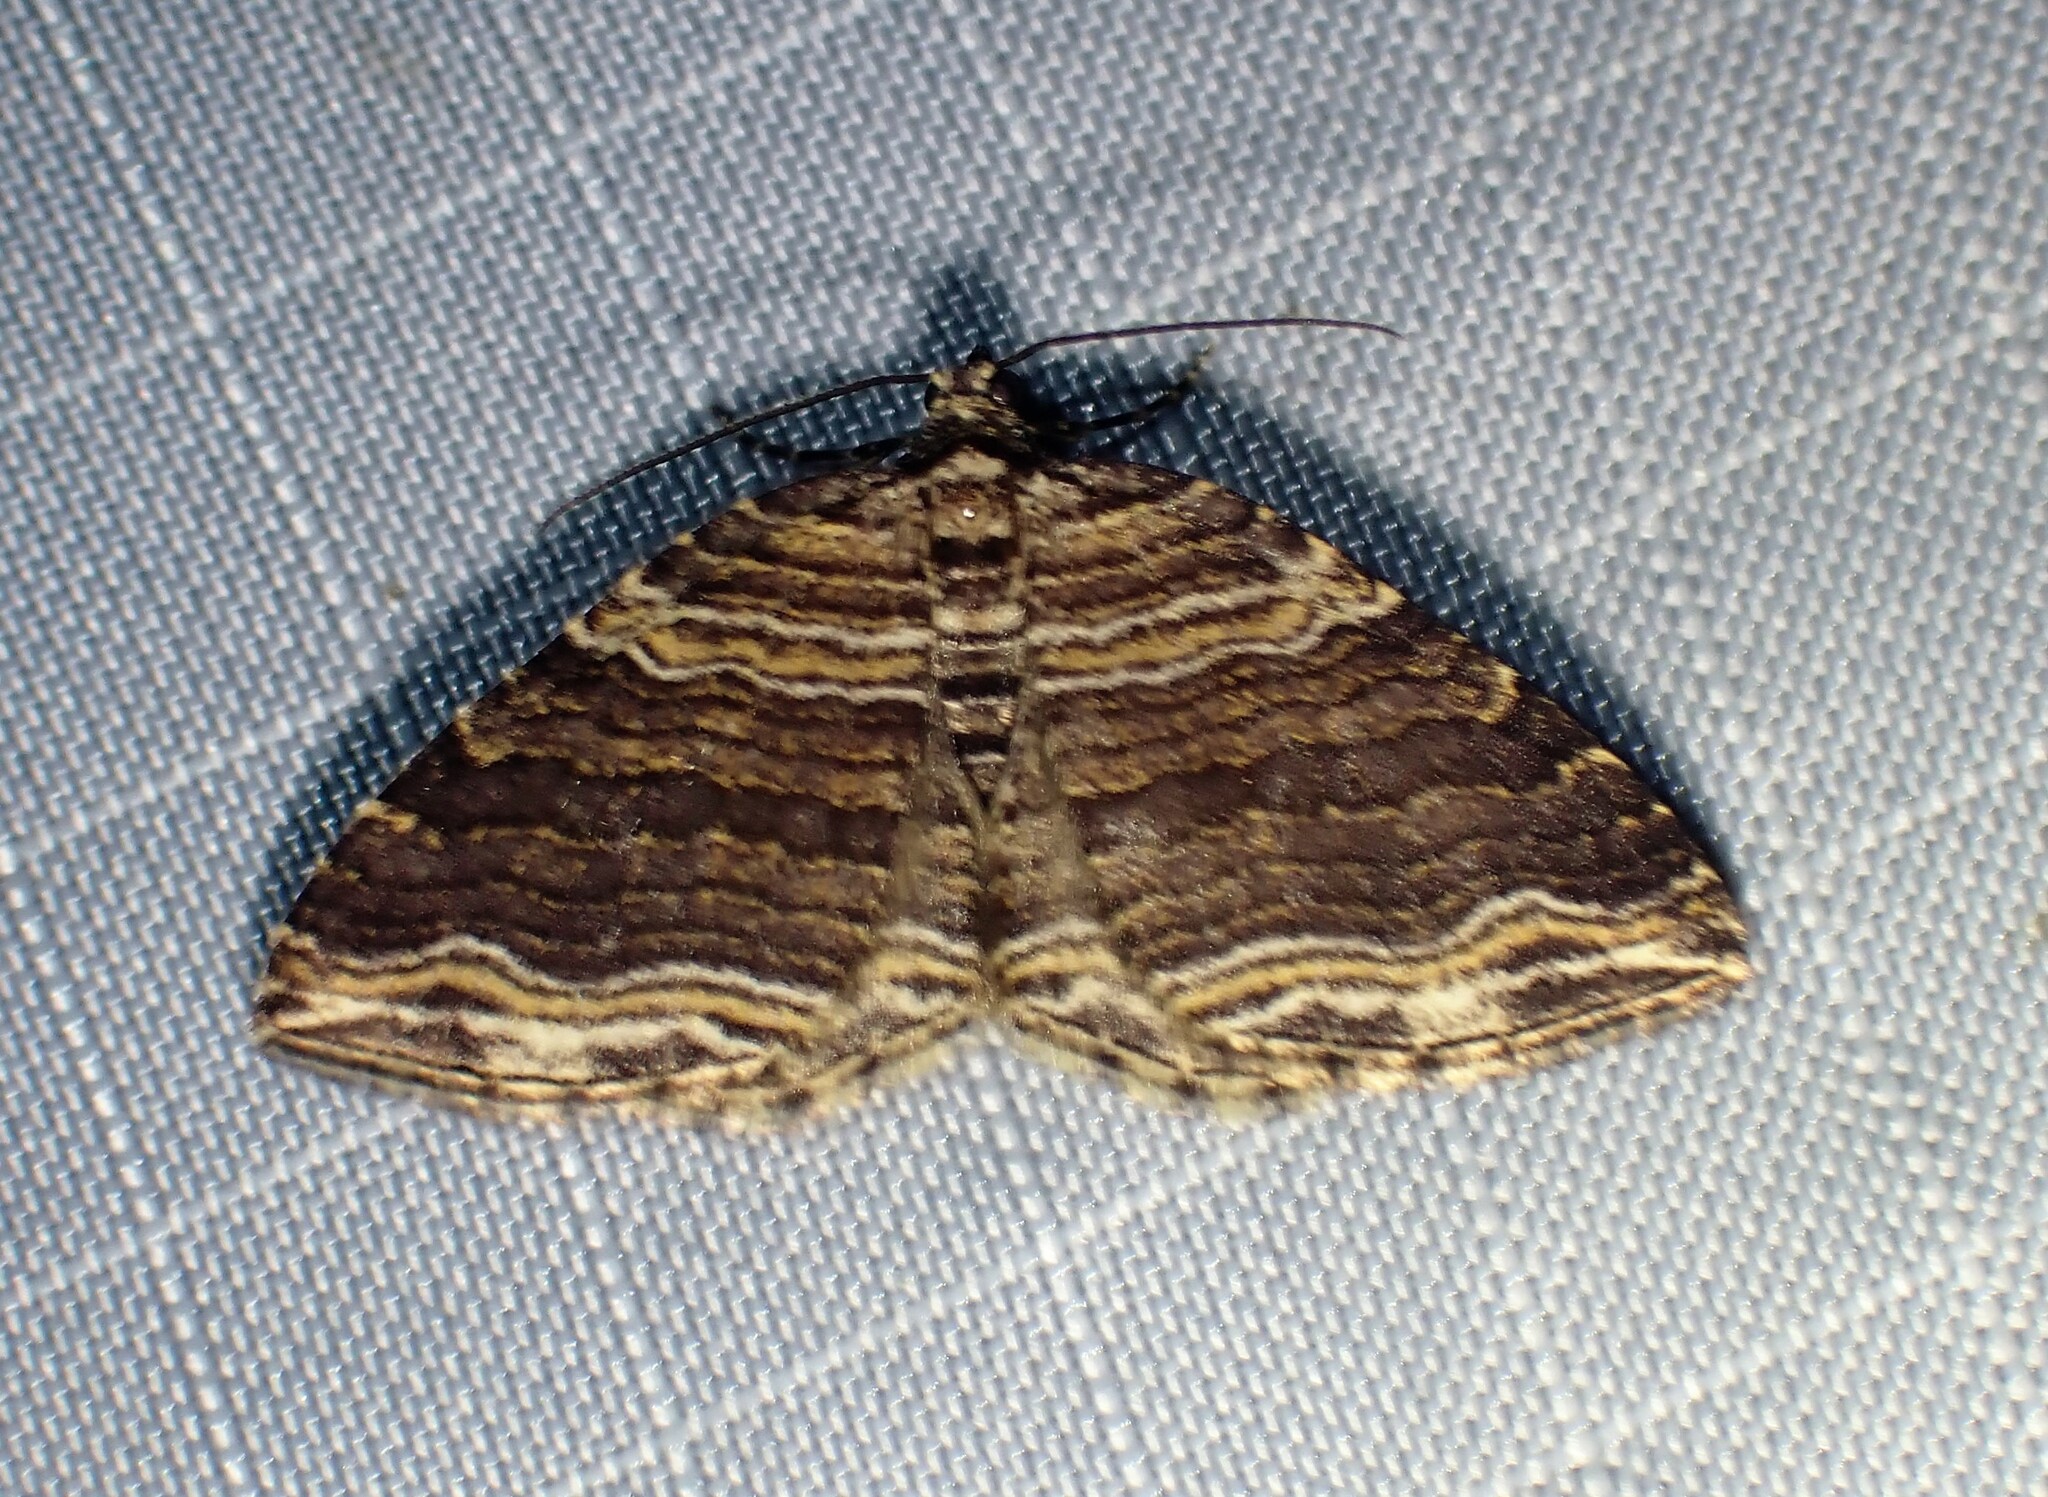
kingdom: Animalia
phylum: Arthropoda
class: Insecta
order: Lepidoptera
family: Geometridae
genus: Anticlea
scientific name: Anticlea multiferata
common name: Many-lined carpet
